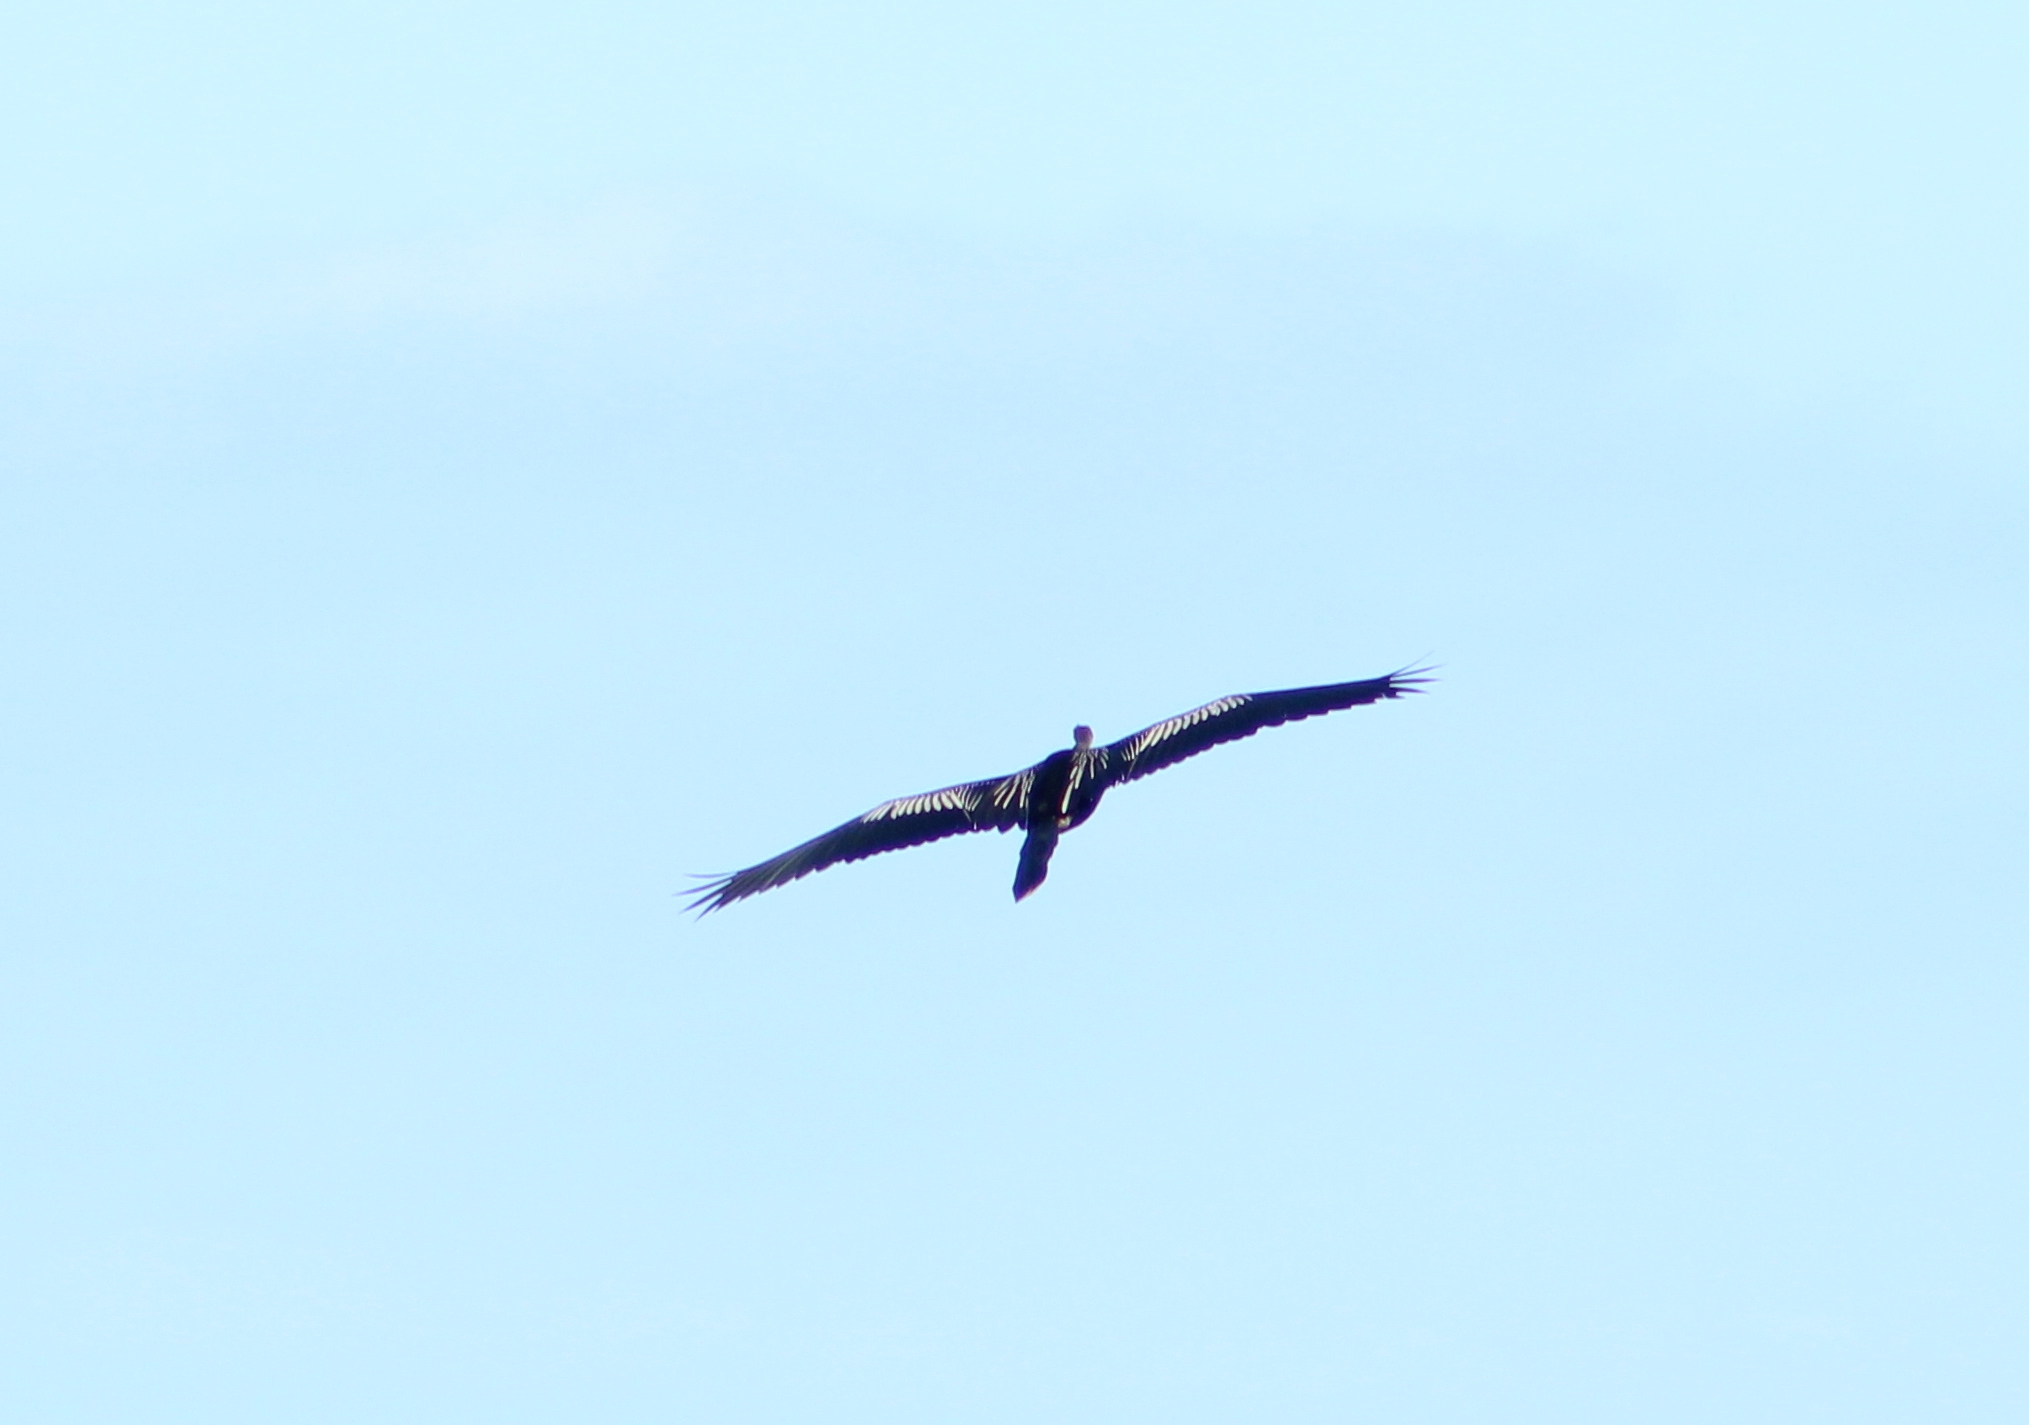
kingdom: Animalia
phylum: Chordata
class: Aves
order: Suliformes
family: Anhingidae
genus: Anhinga
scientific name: Anhinga anhinga
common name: Anhinga
